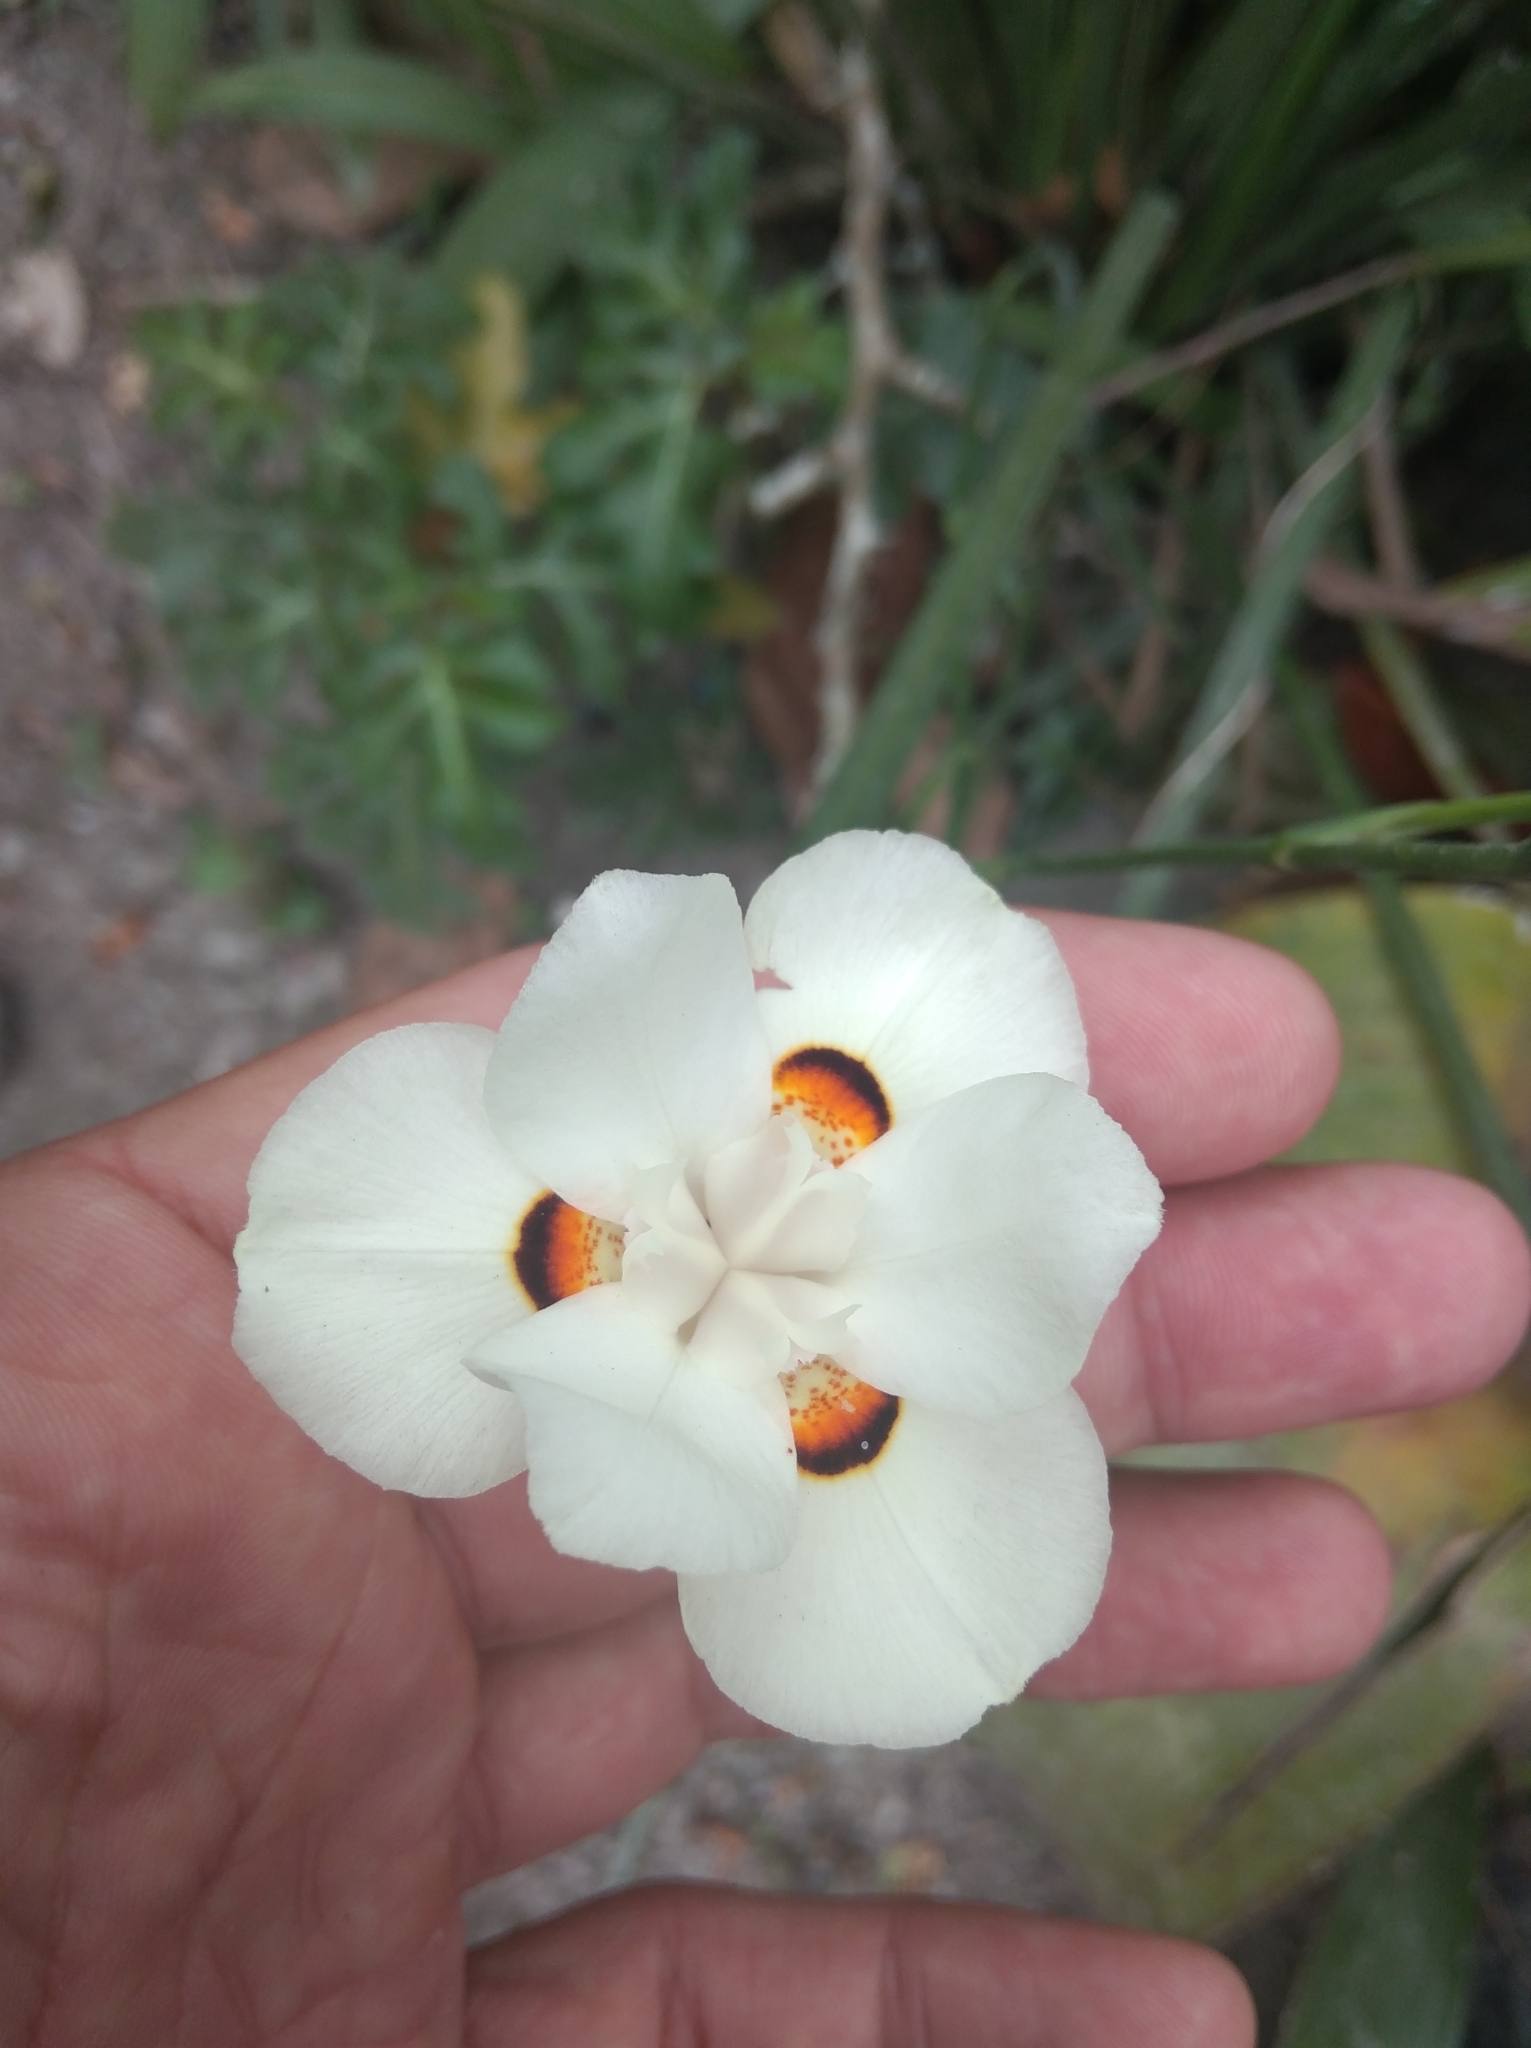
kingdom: Plantae
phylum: Tracheophyta
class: Liliopsida
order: Asparagales
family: Iridaceae
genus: Dietes
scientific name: Dietes bicolor
